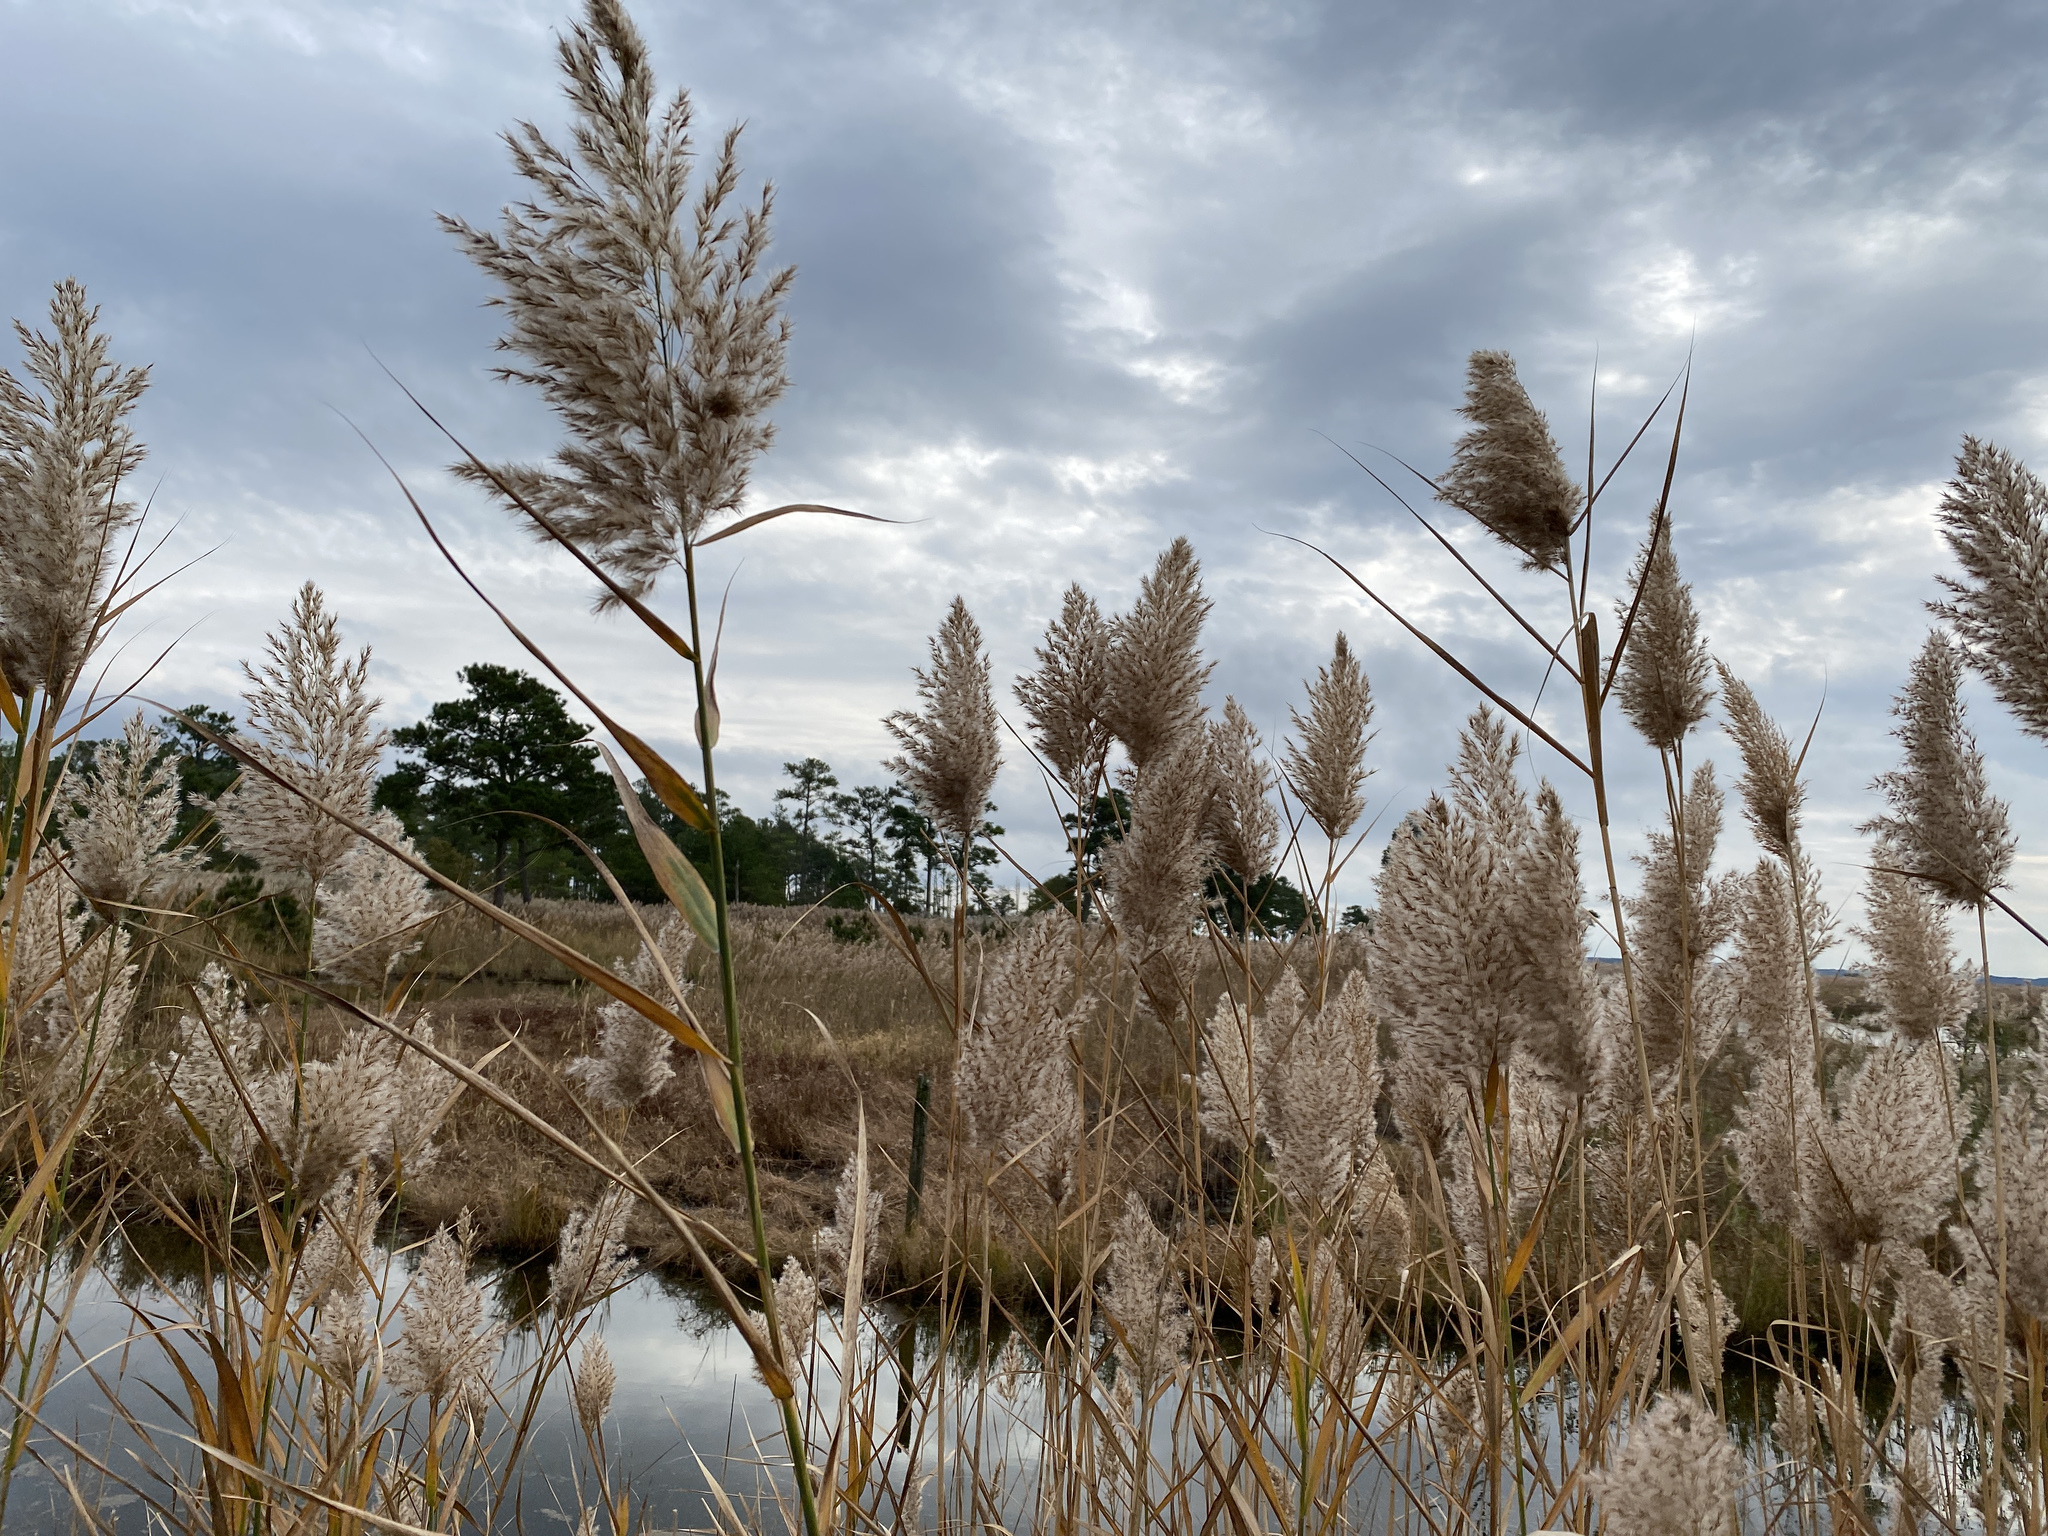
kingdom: Plantae
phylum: Tracheophyta
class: Liliopsida
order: Poales
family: Poaceae
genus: Phragmites
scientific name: Phragmites australis
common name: Common reed
